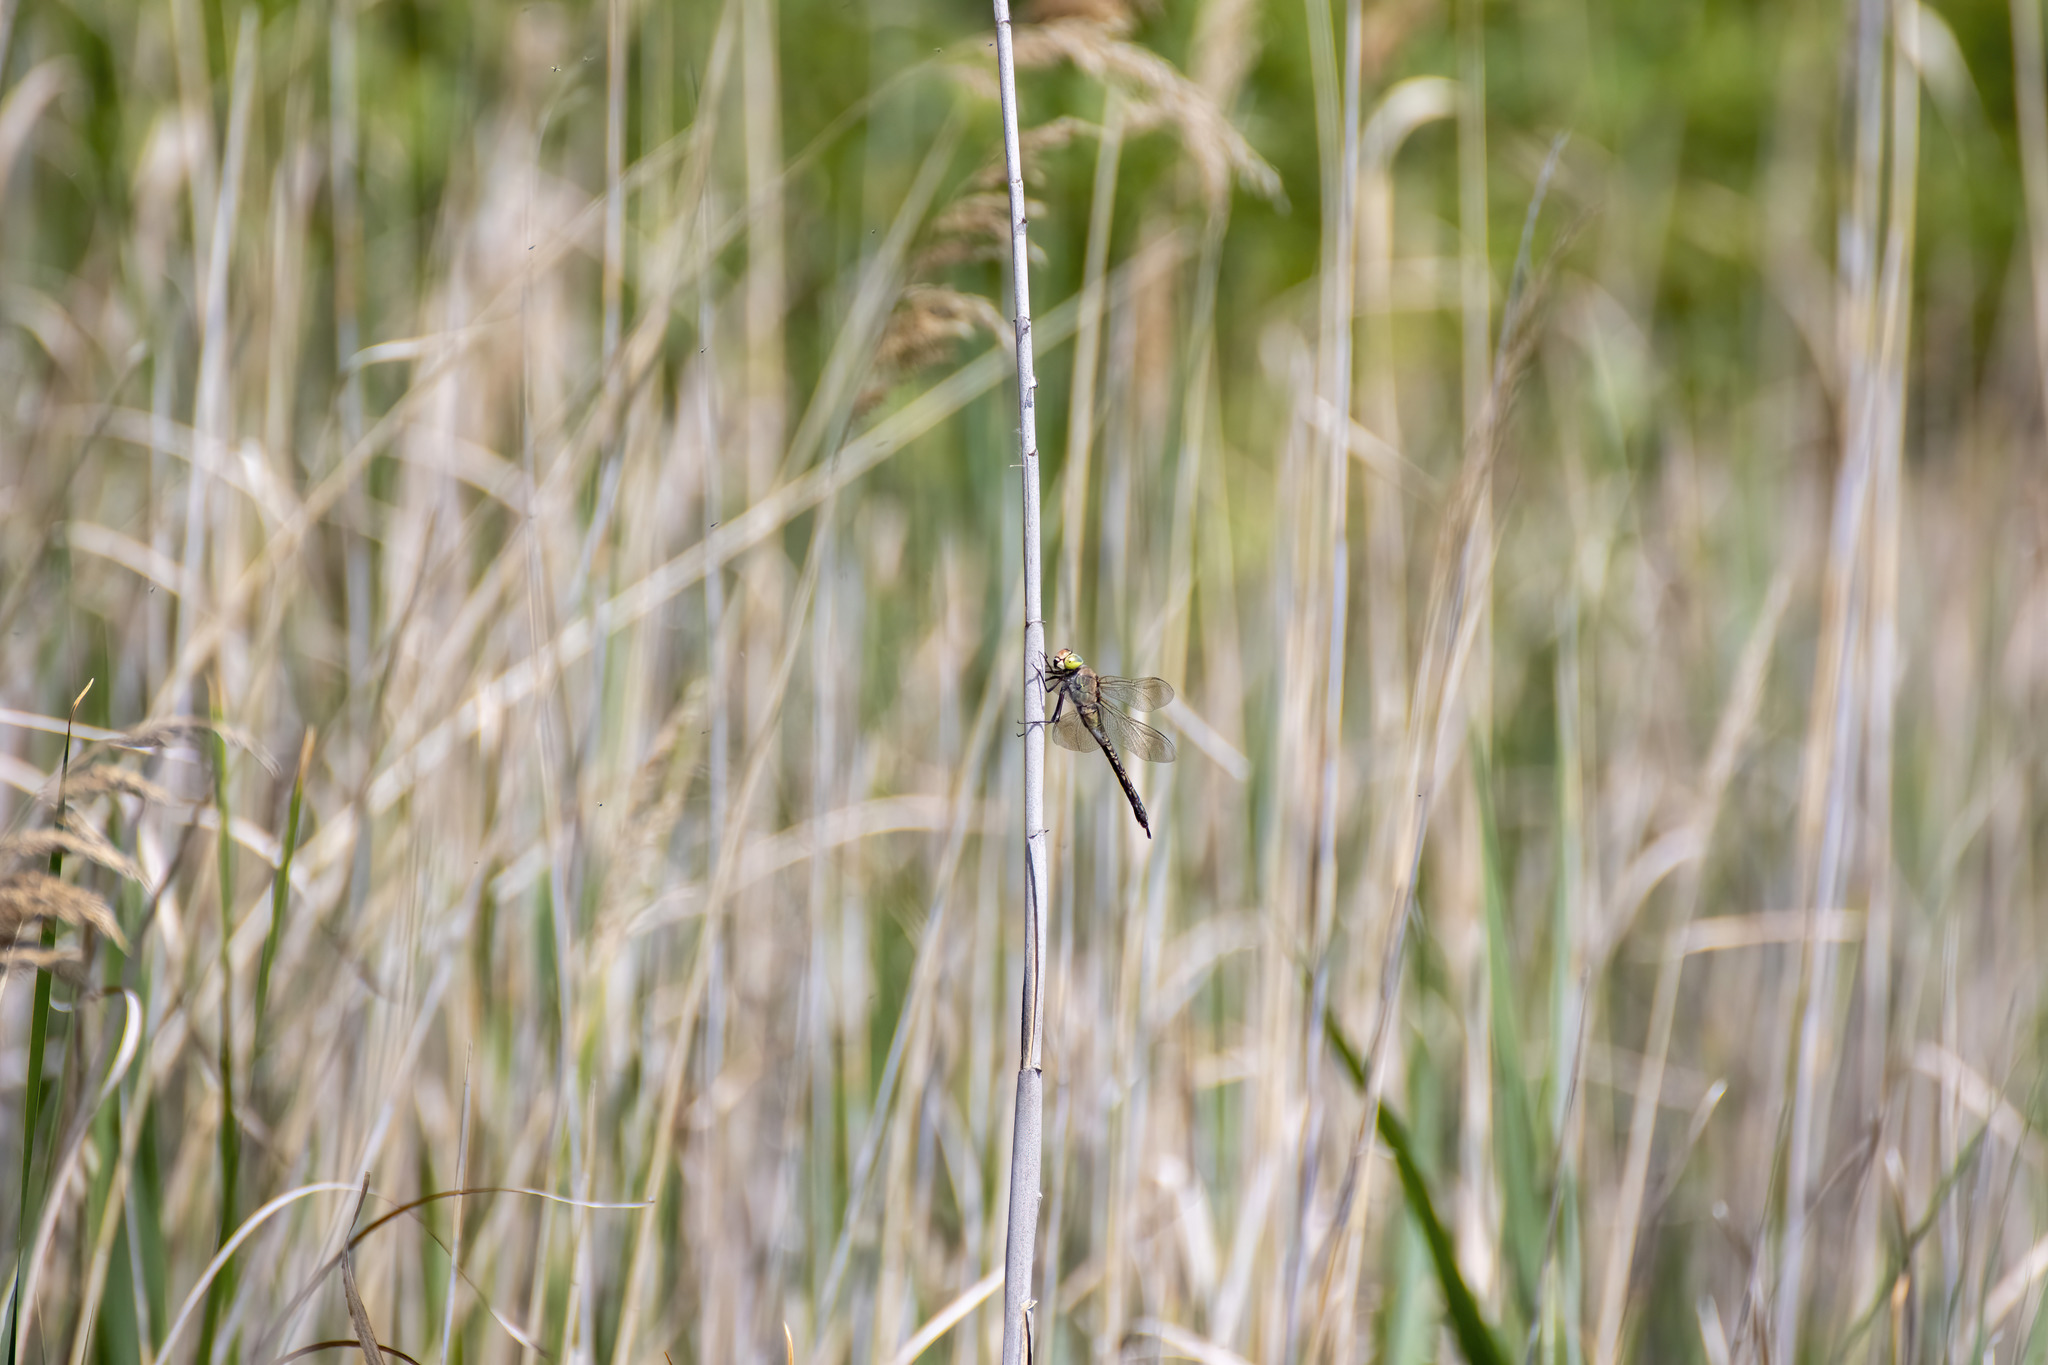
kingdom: Animalia
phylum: Arthropoda
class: Insecta
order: Odonata
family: Aeshnidae
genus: Anax
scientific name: Anax parthenope
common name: Lesser emperor
